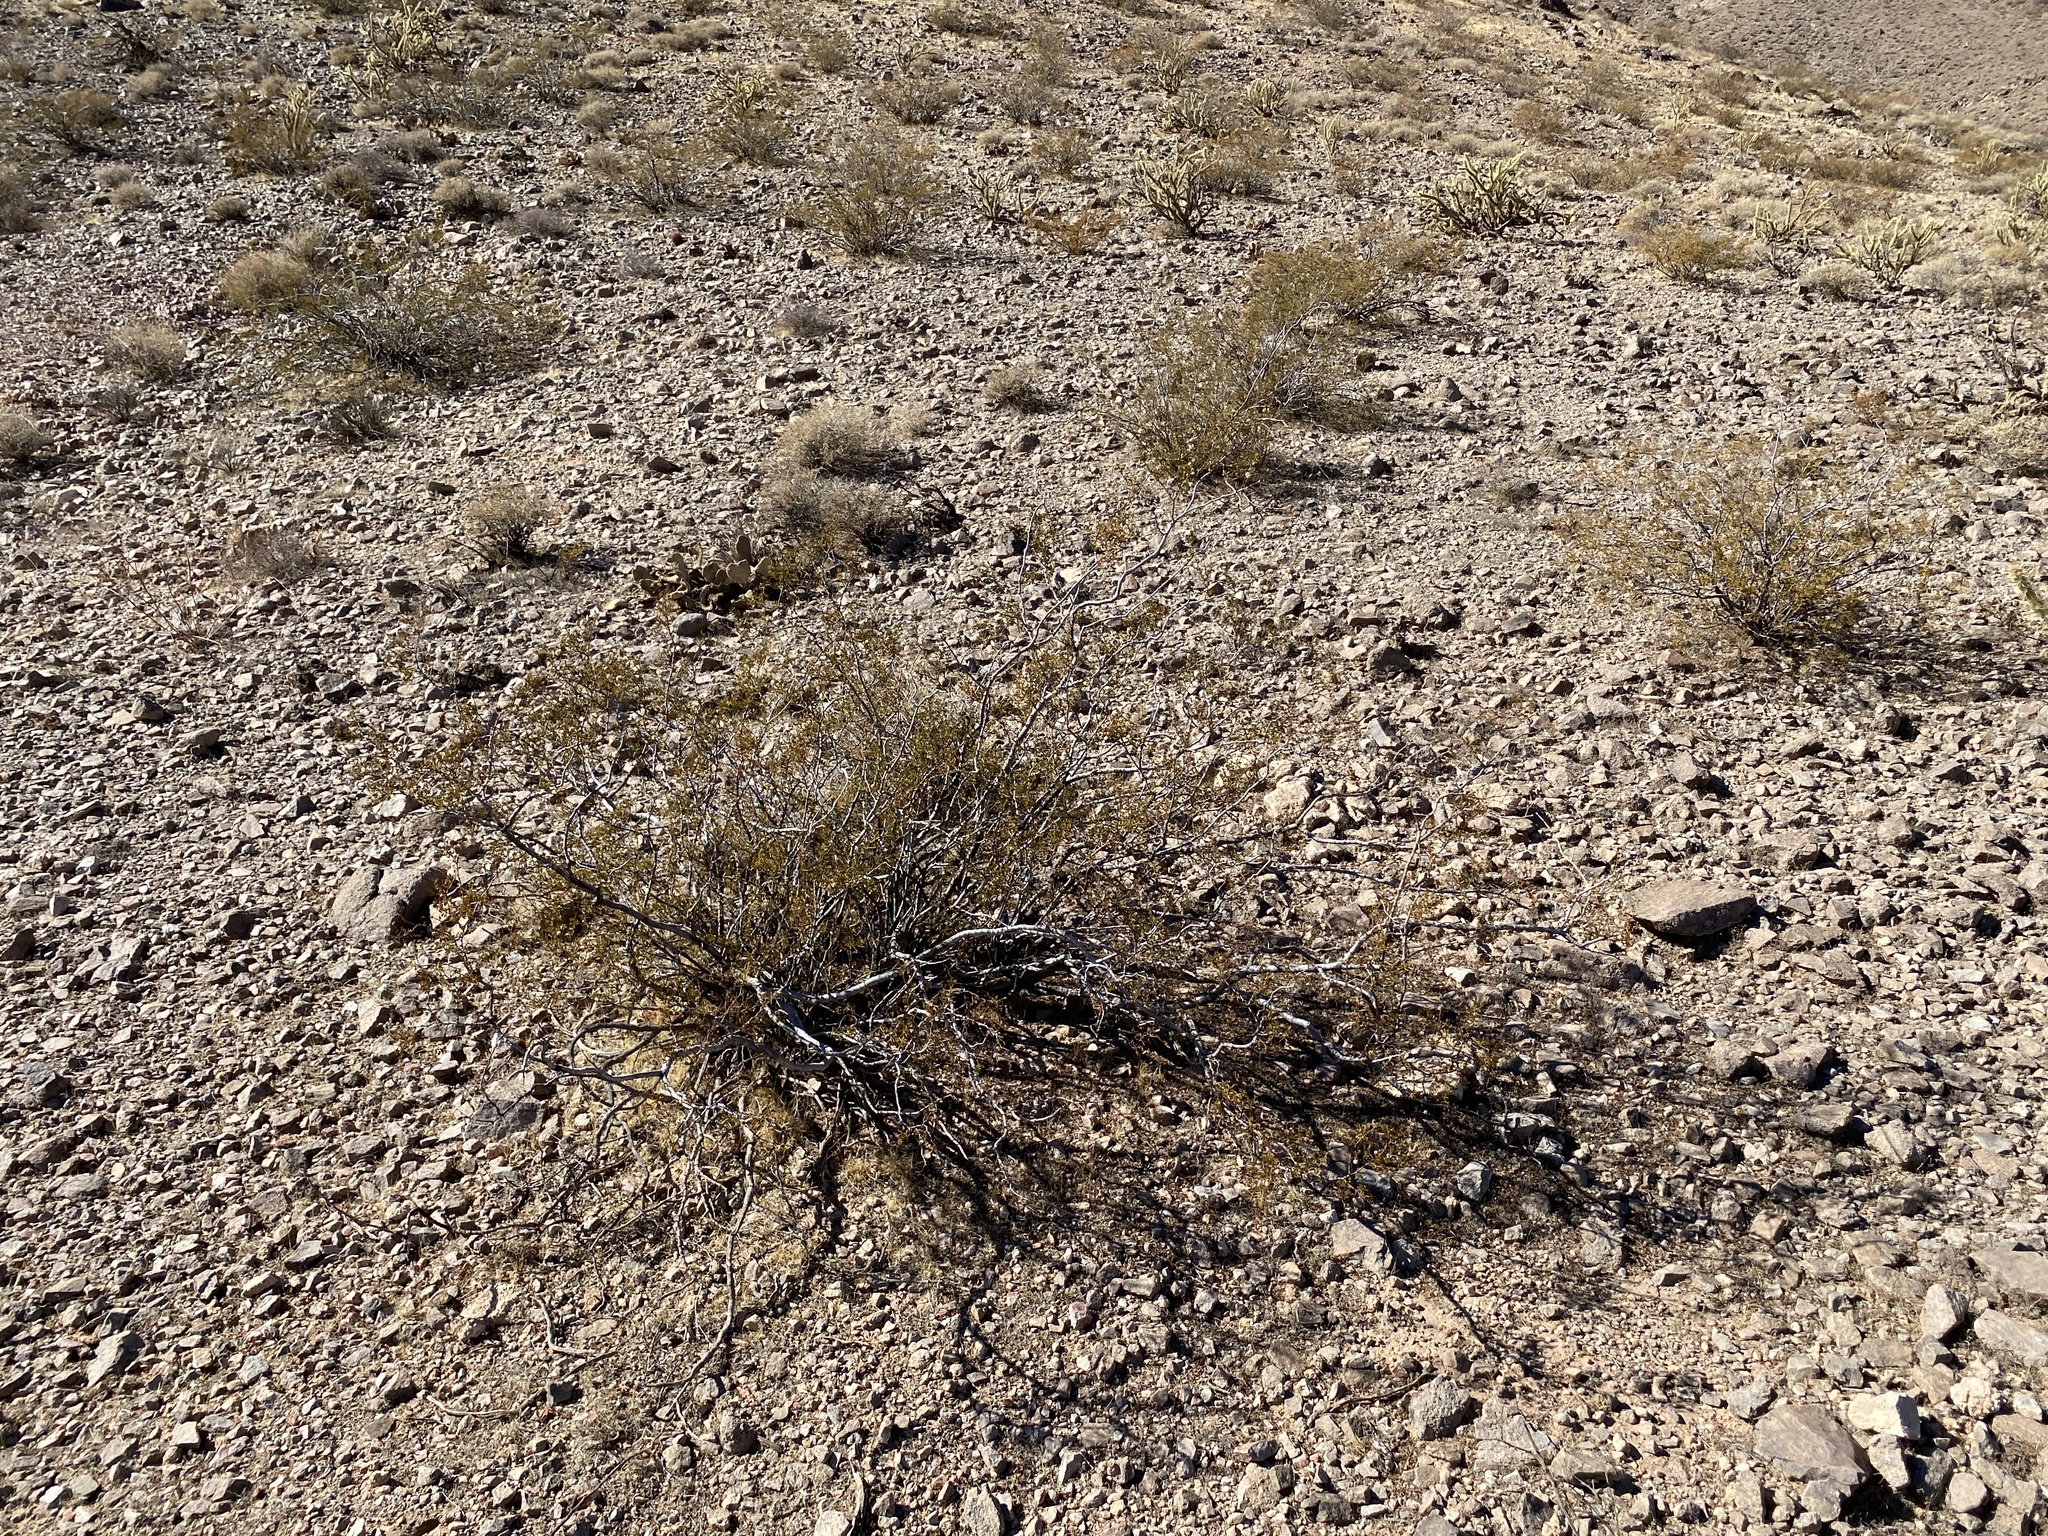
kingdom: Plantae
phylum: Tracheophyta
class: Magnoliopsida
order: Zygophyllales
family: Zygophyllaceae
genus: Larrea
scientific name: Larrea tridentata
